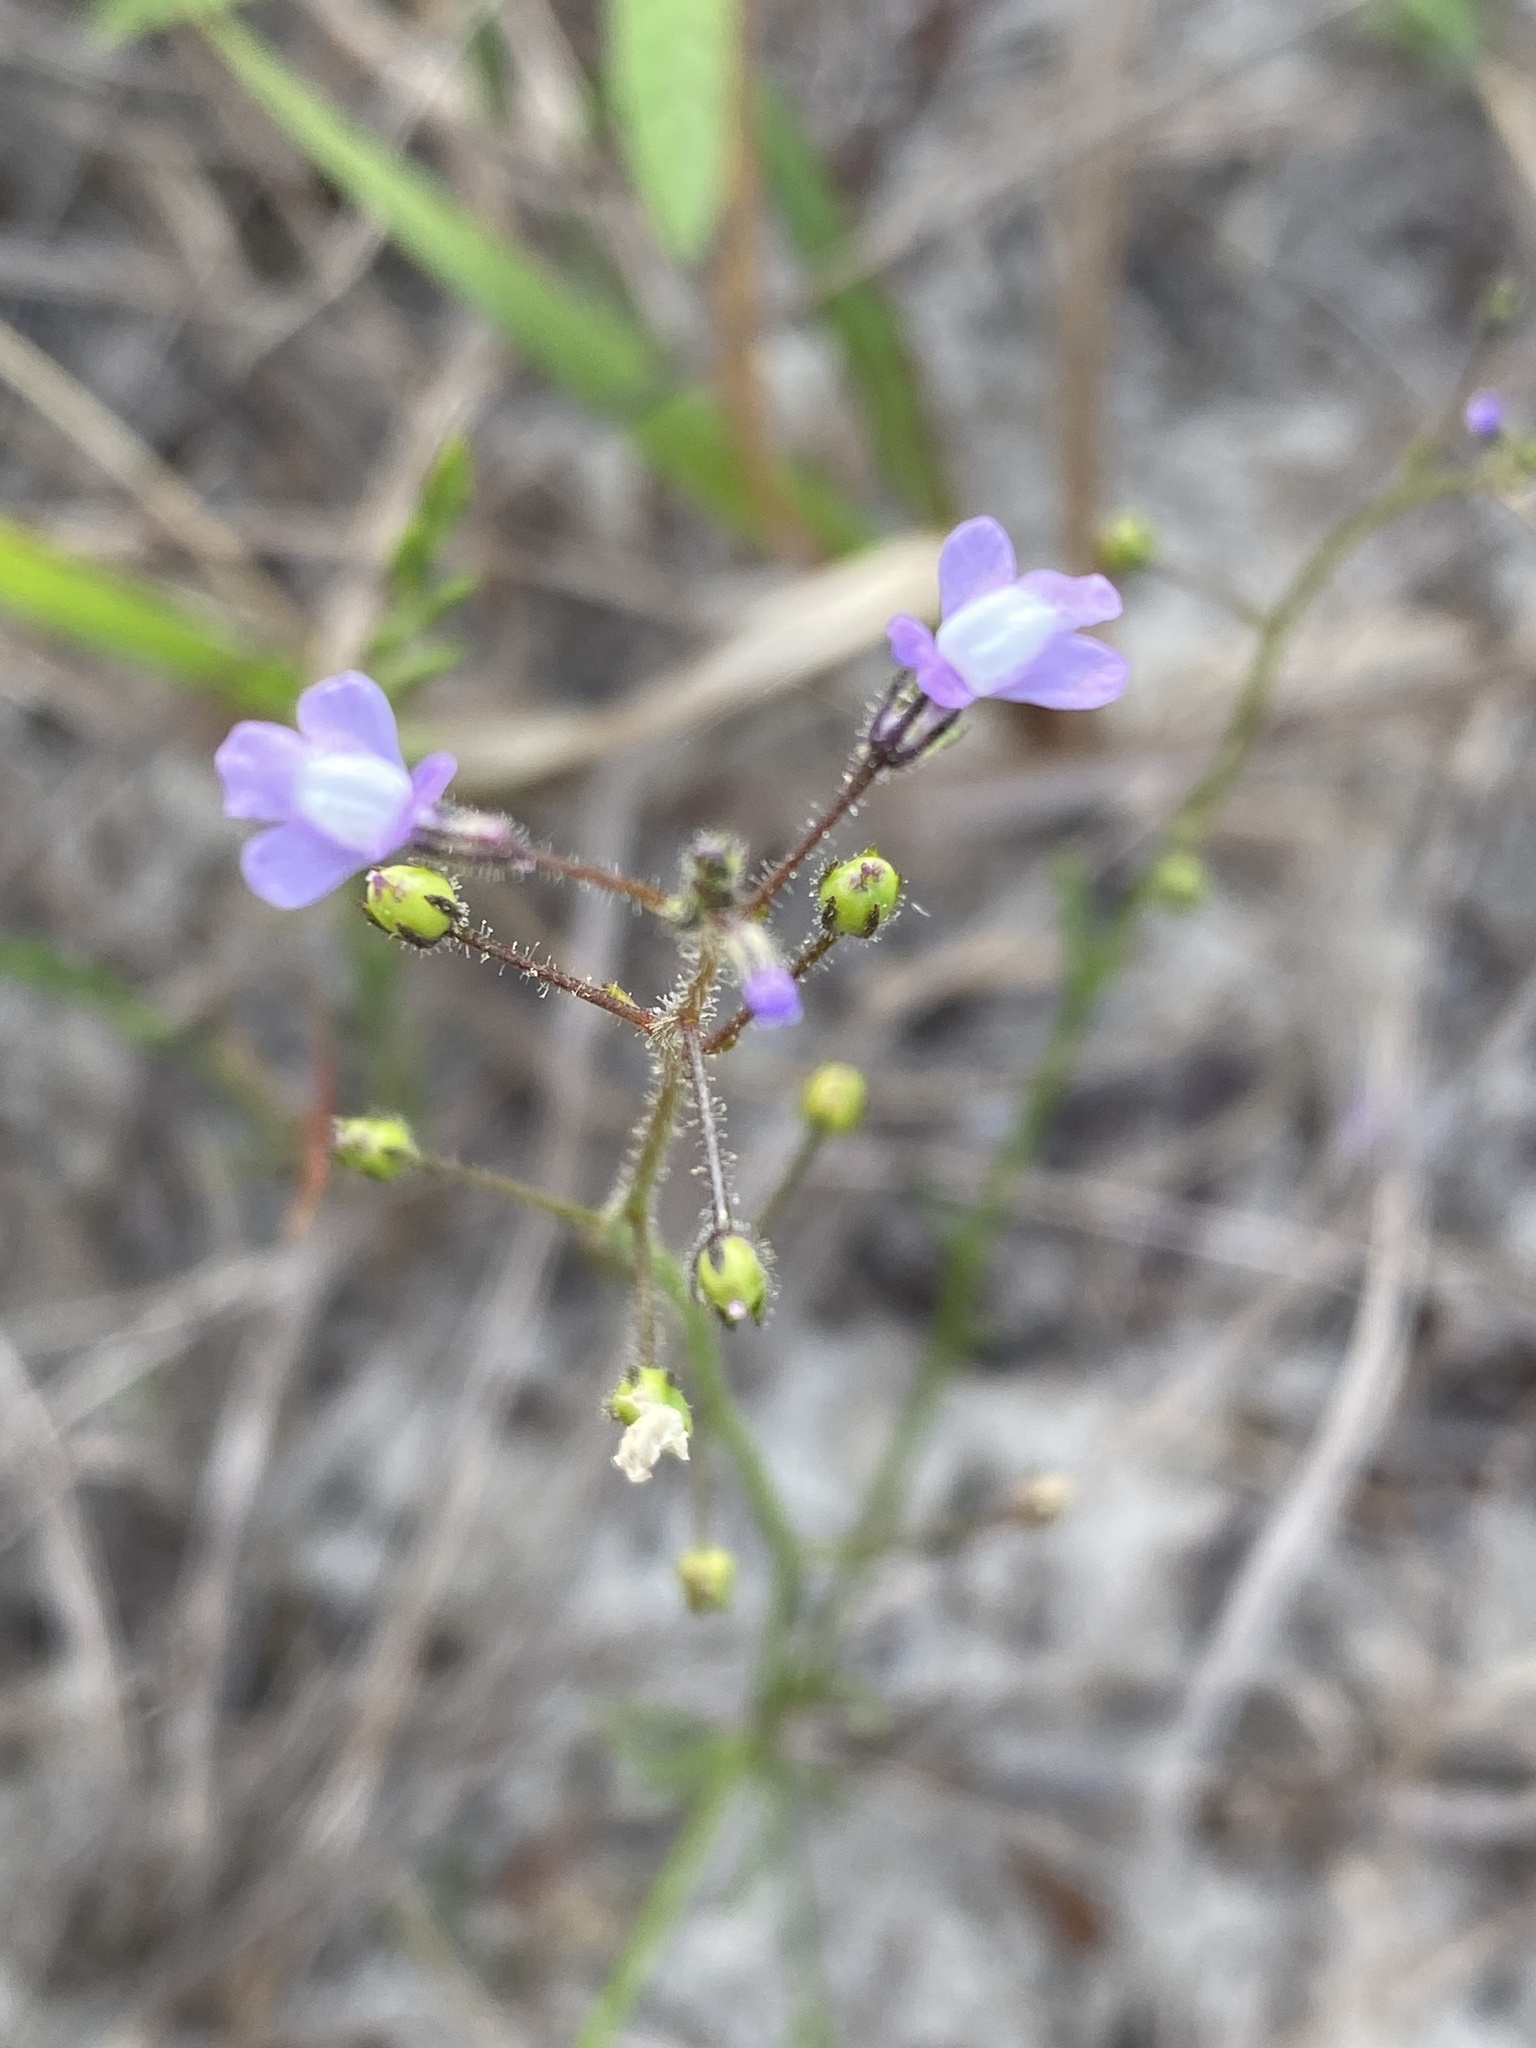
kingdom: Plantae
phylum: Tracheophyta
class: Magnoliopsida
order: Lamiales
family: Plantaginaceae
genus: Nuttallanthus
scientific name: Nuttallanthus floridanus
